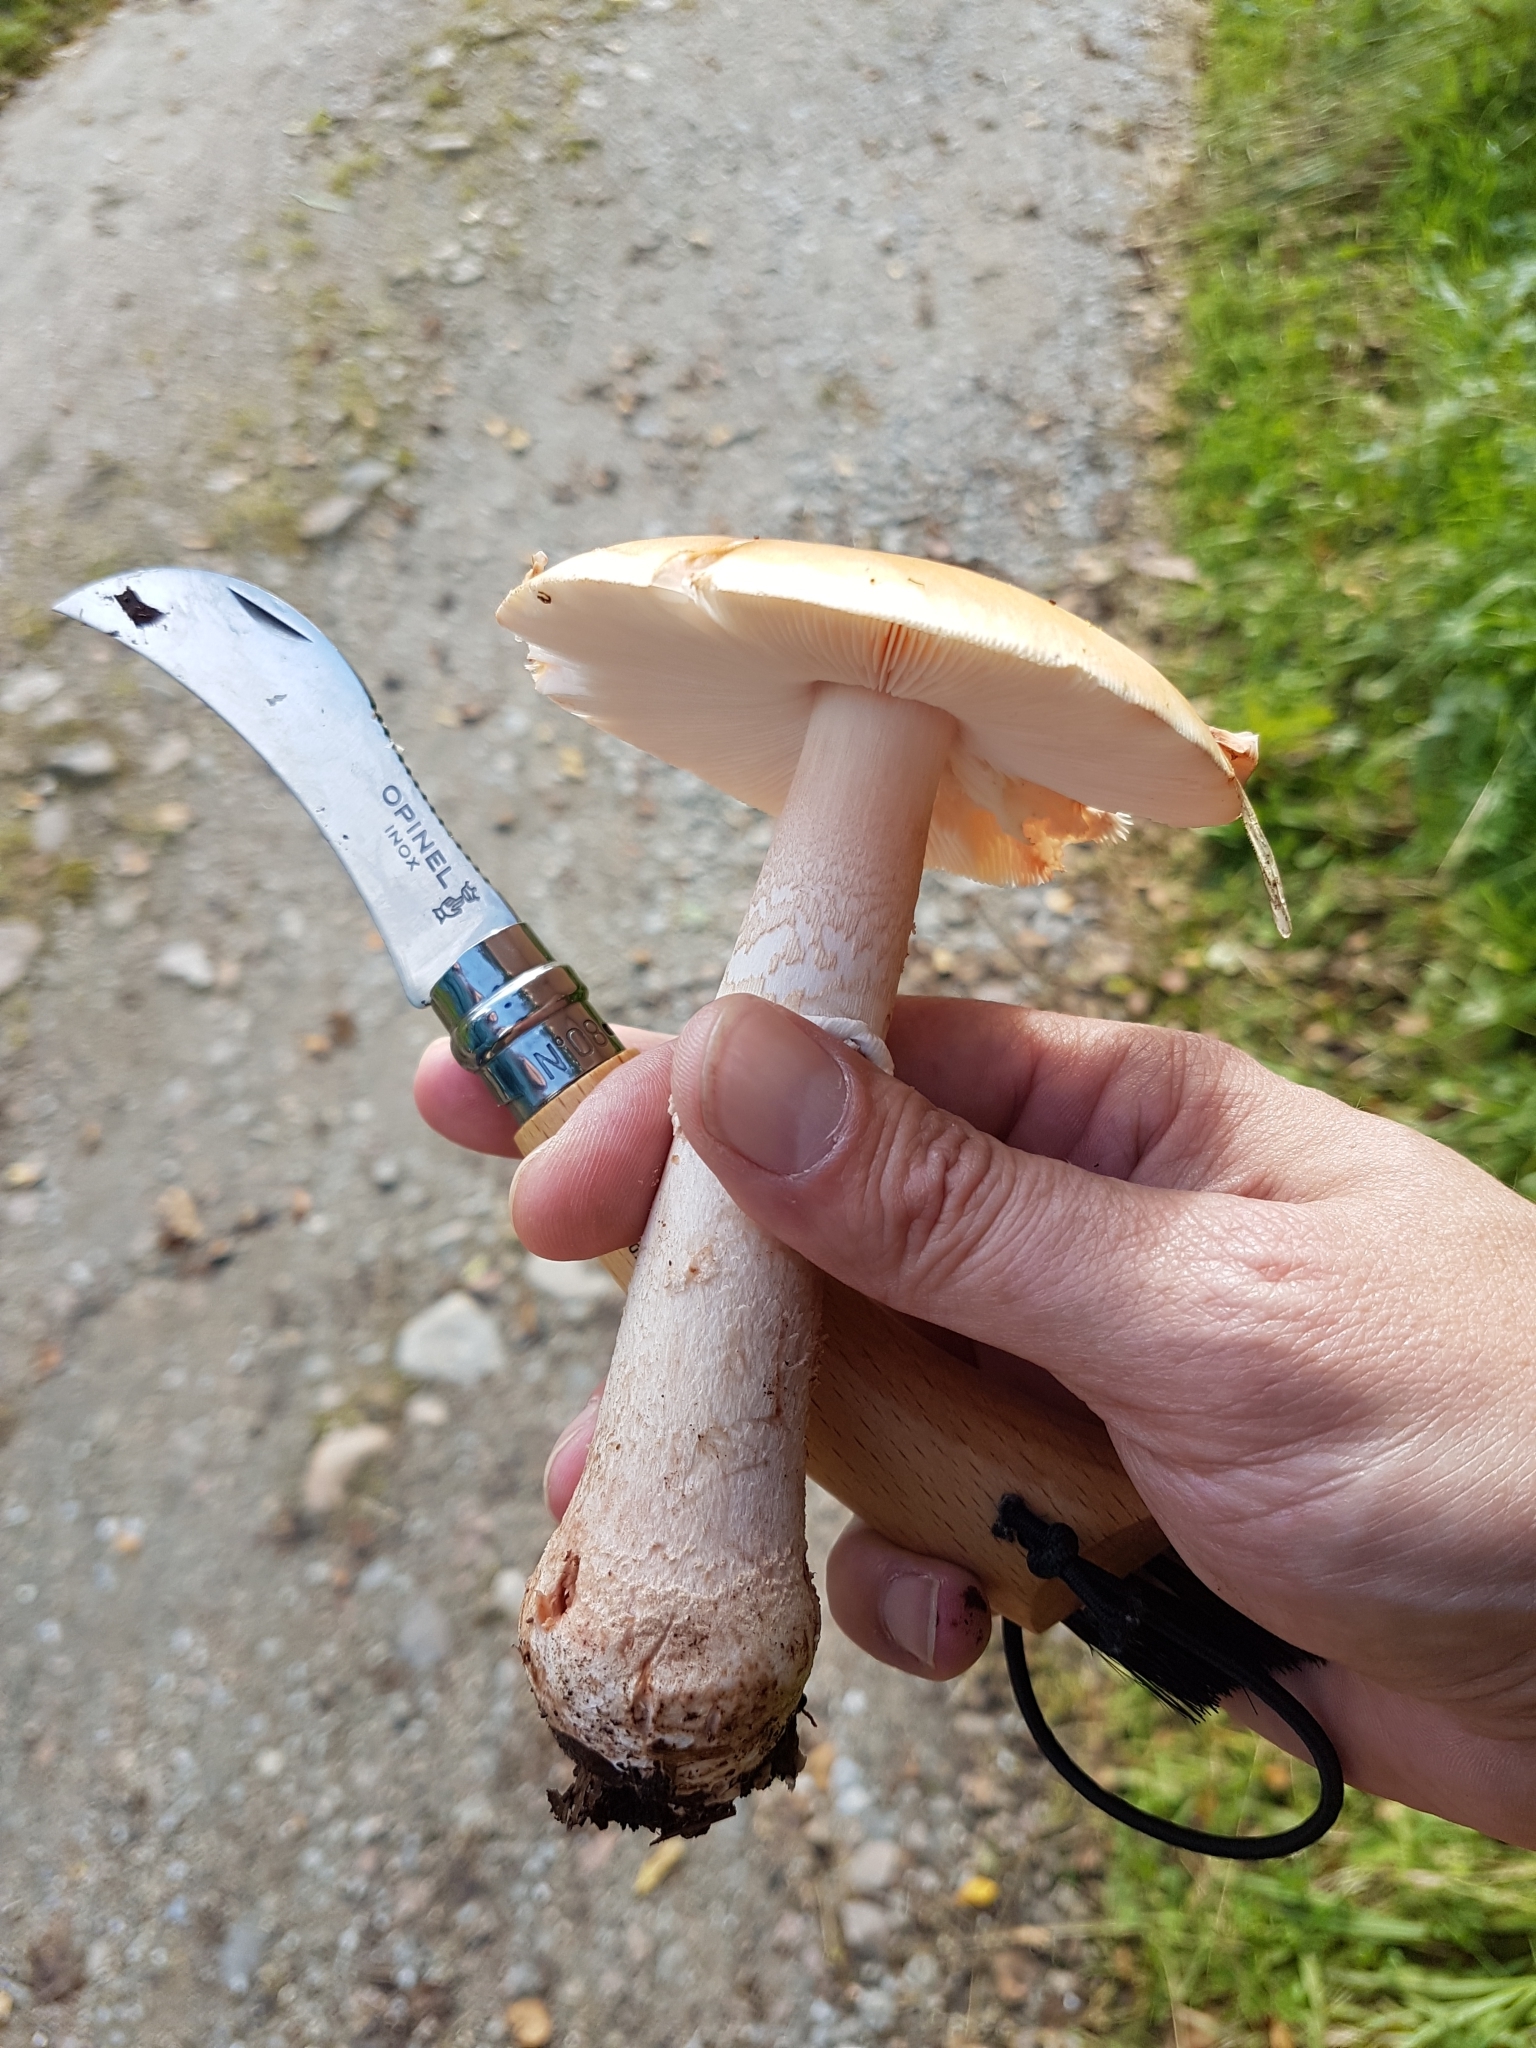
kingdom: Fungi
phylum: Basidiomycota
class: Agaricomycetes
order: Agaricales
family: Amanitaceae
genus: Amanita
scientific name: Amanita rubescens
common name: Blusher
